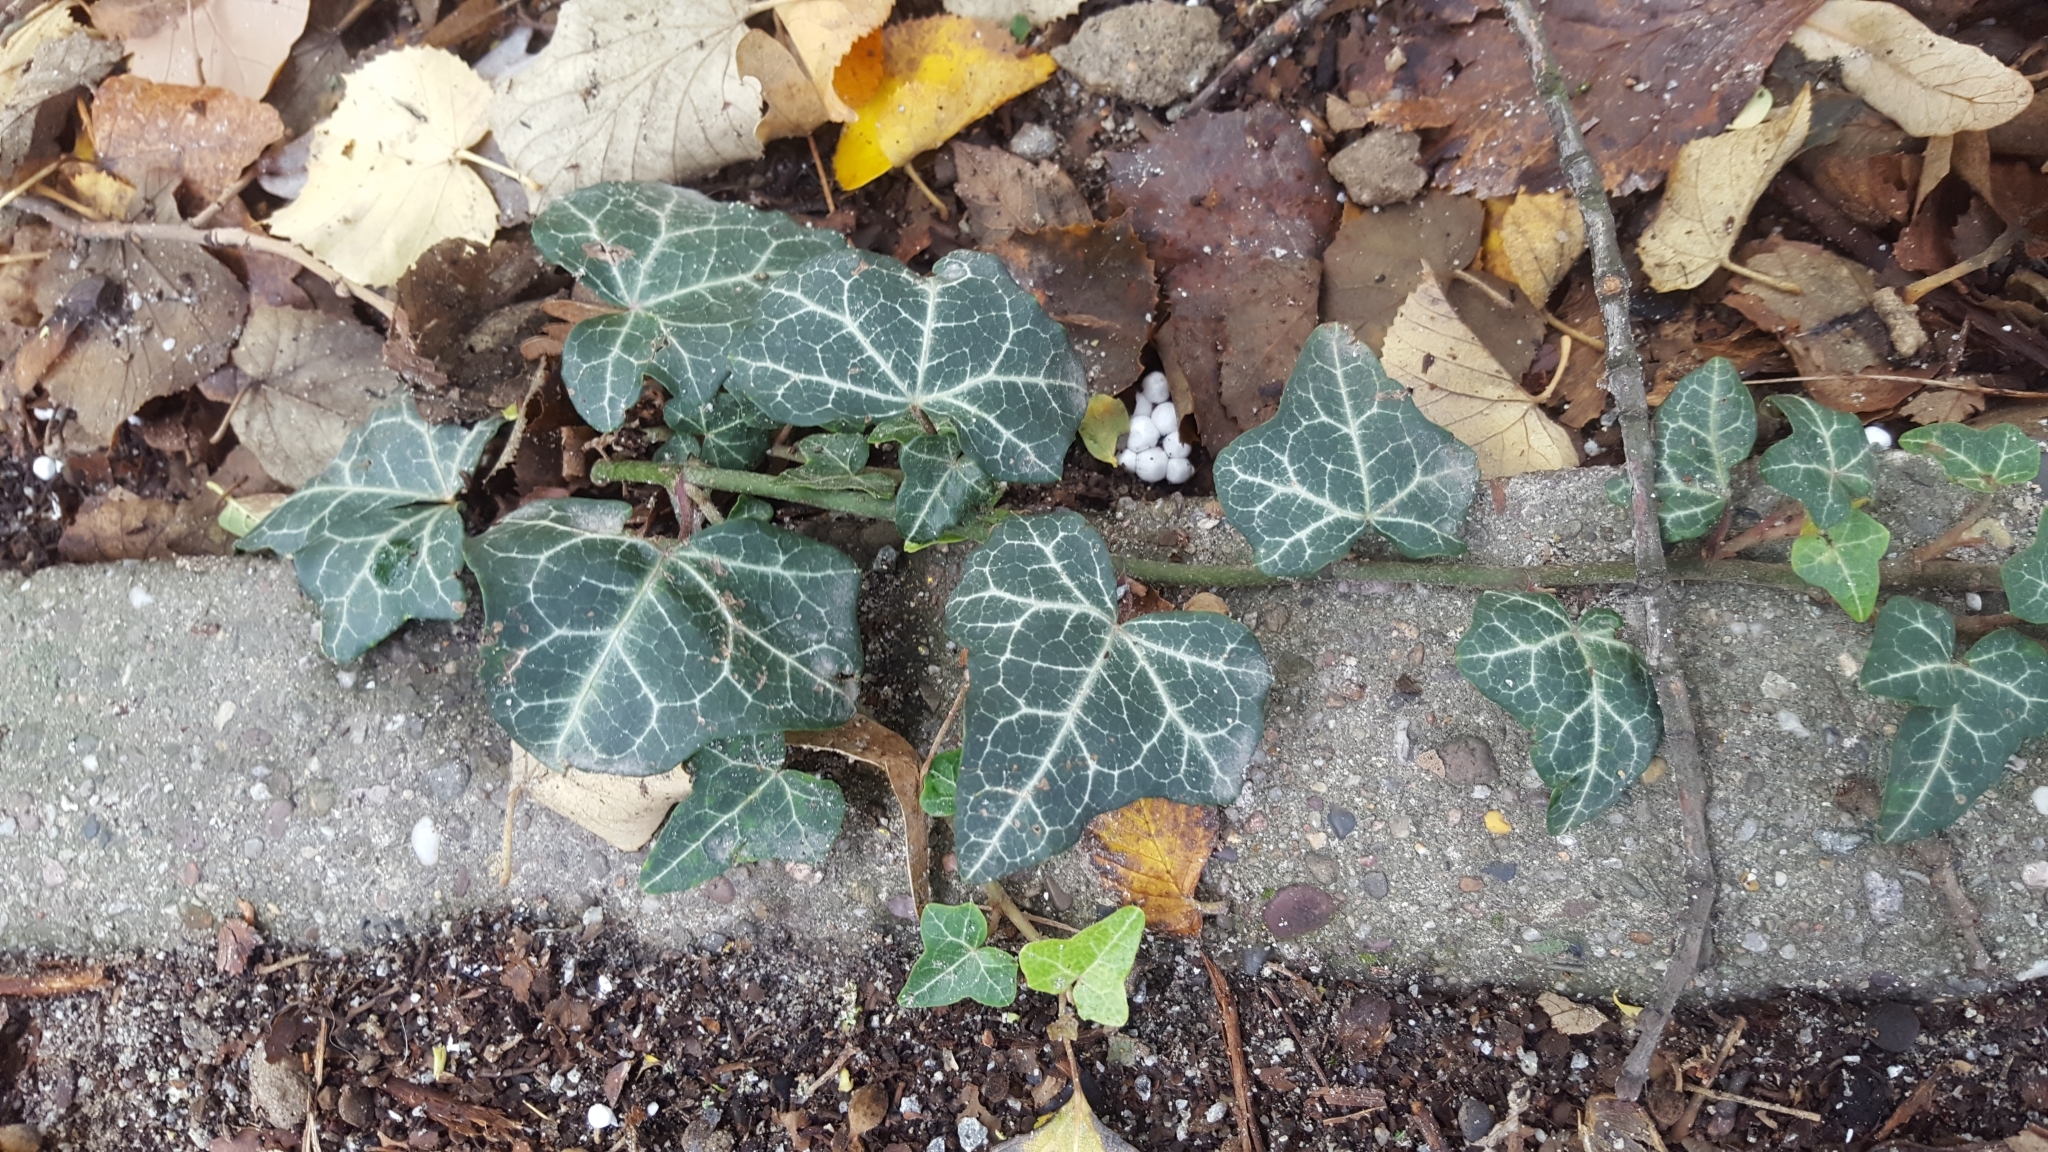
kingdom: Plantae
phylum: Tracheophyta
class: Magnoliopsida
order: Apiales
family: Araliaceae
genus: Hedera
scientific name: Hedera helix
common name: Ivy
